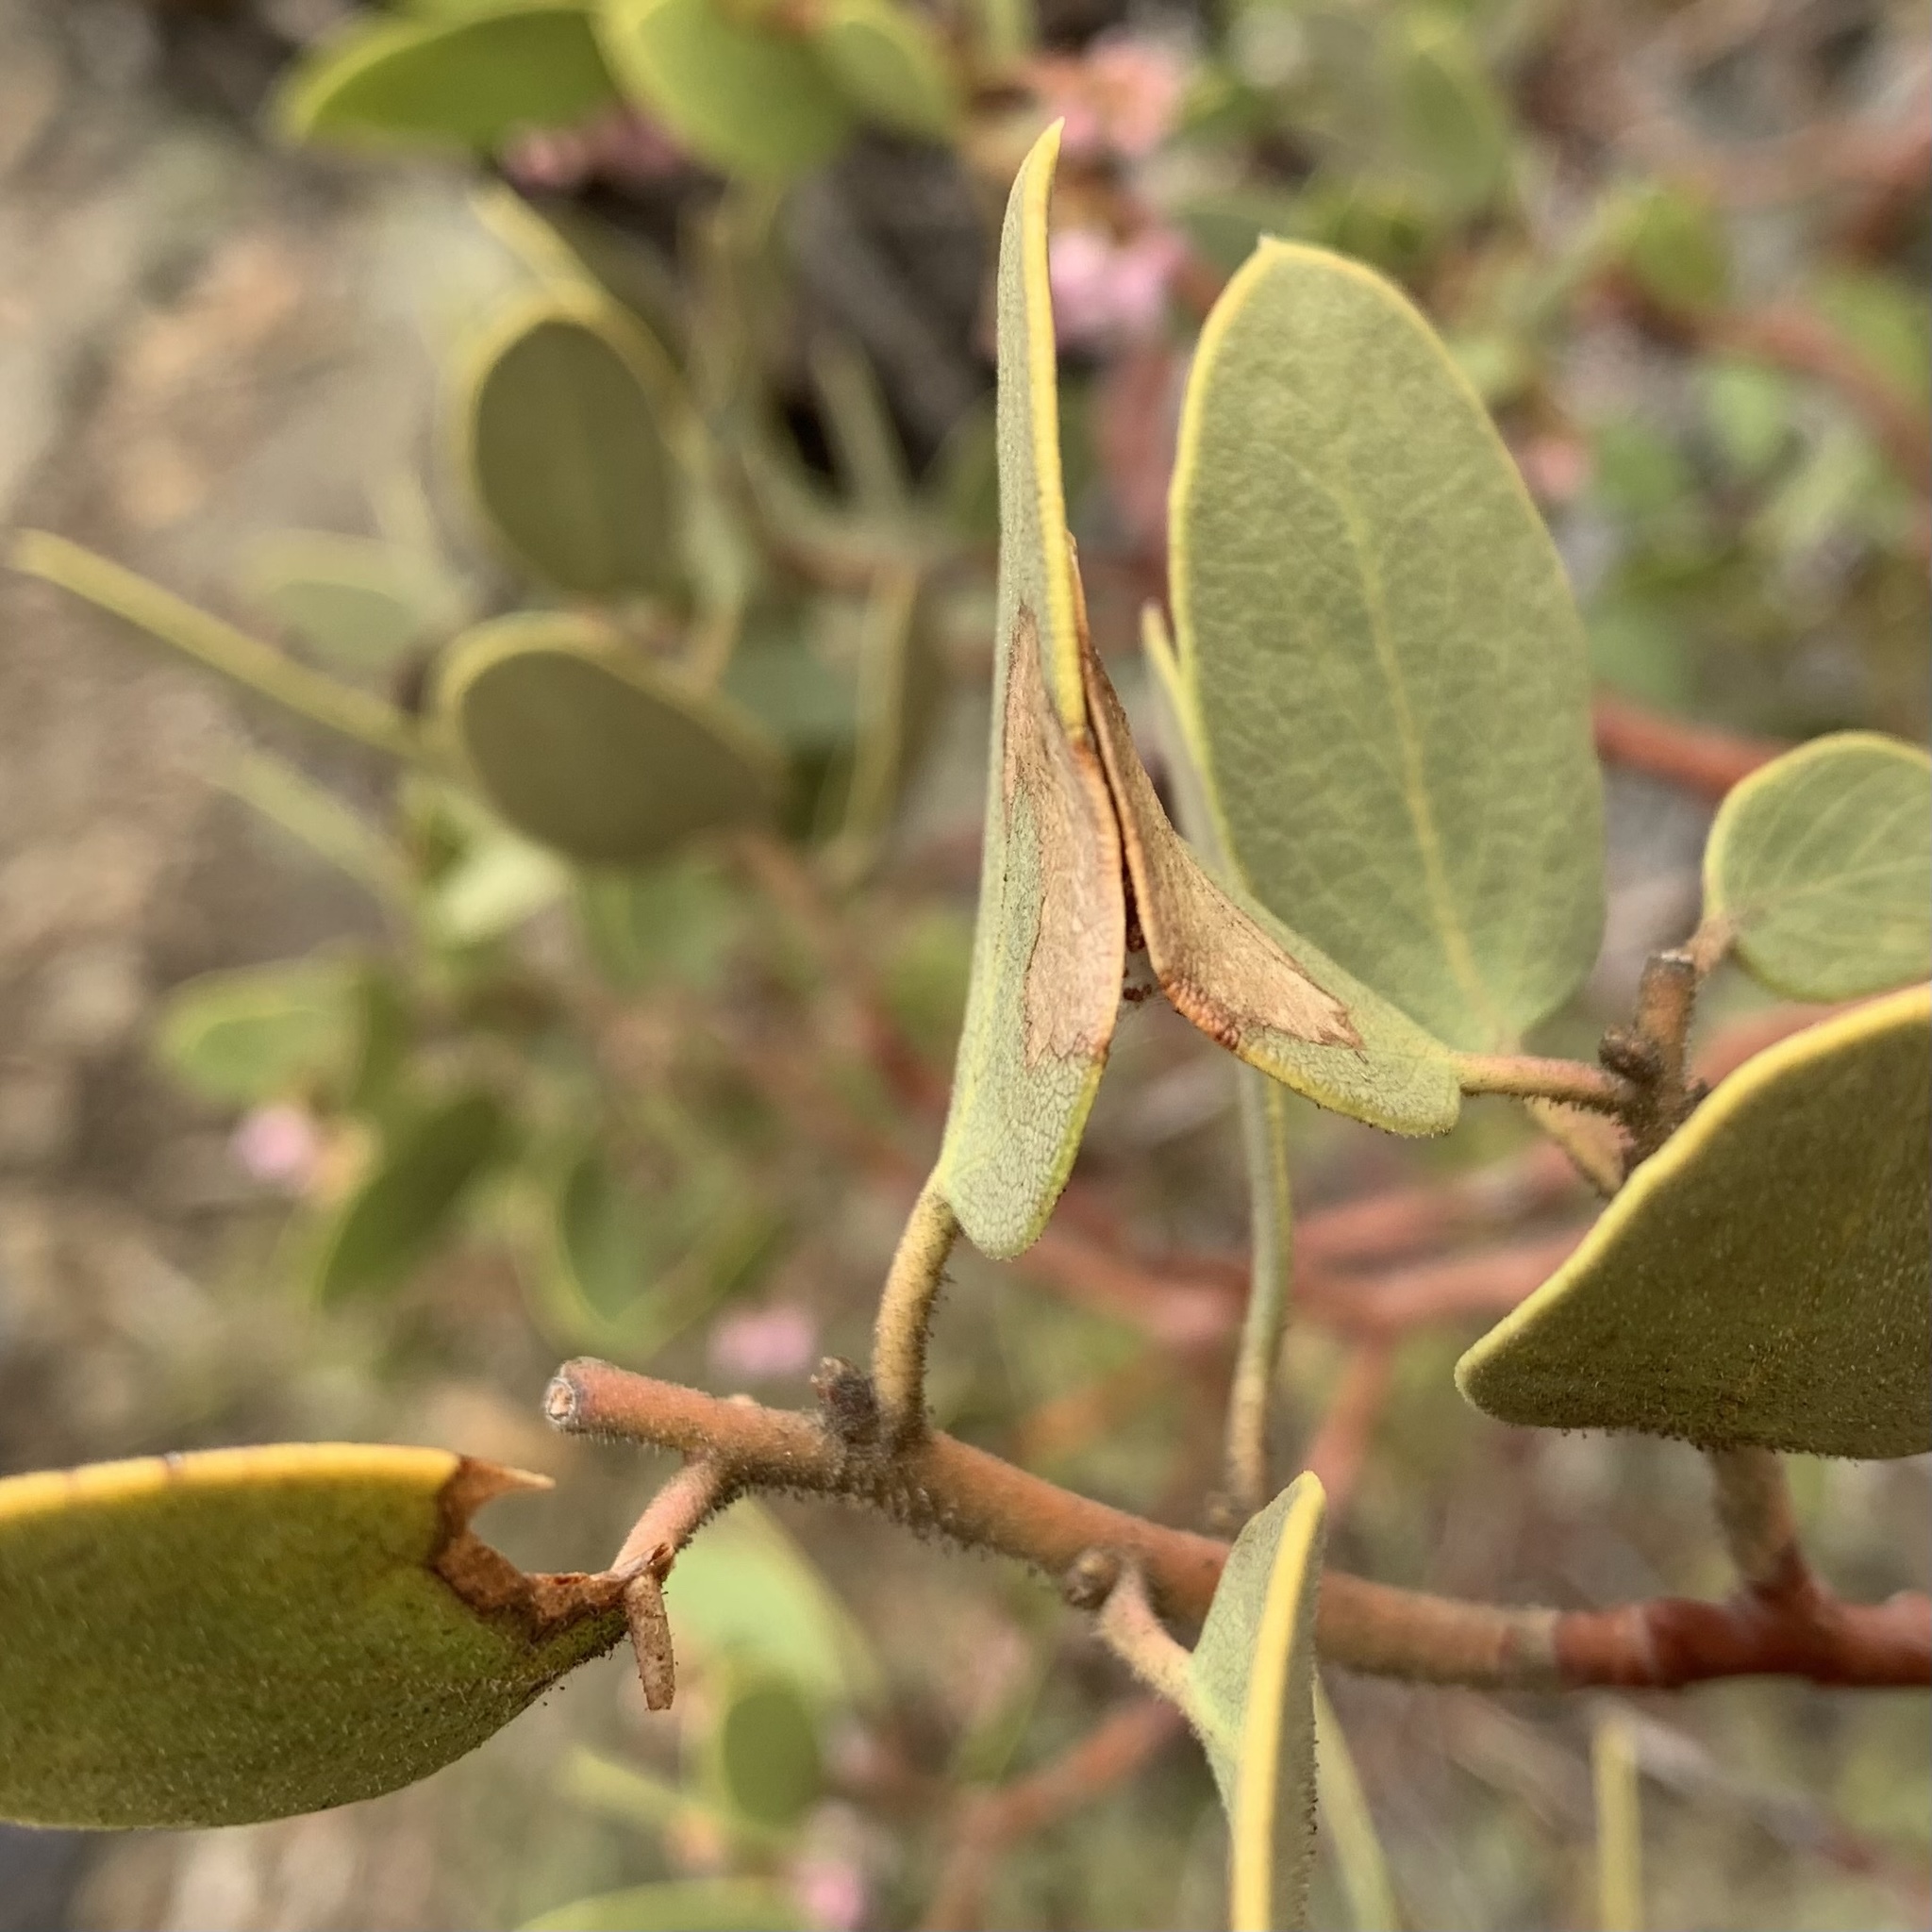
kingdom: Animalia
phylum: Arthropoda
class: Insecta
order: Lepidoptera
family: Coleophoridae
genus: Coleophora
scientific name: Coleophora glaucella
